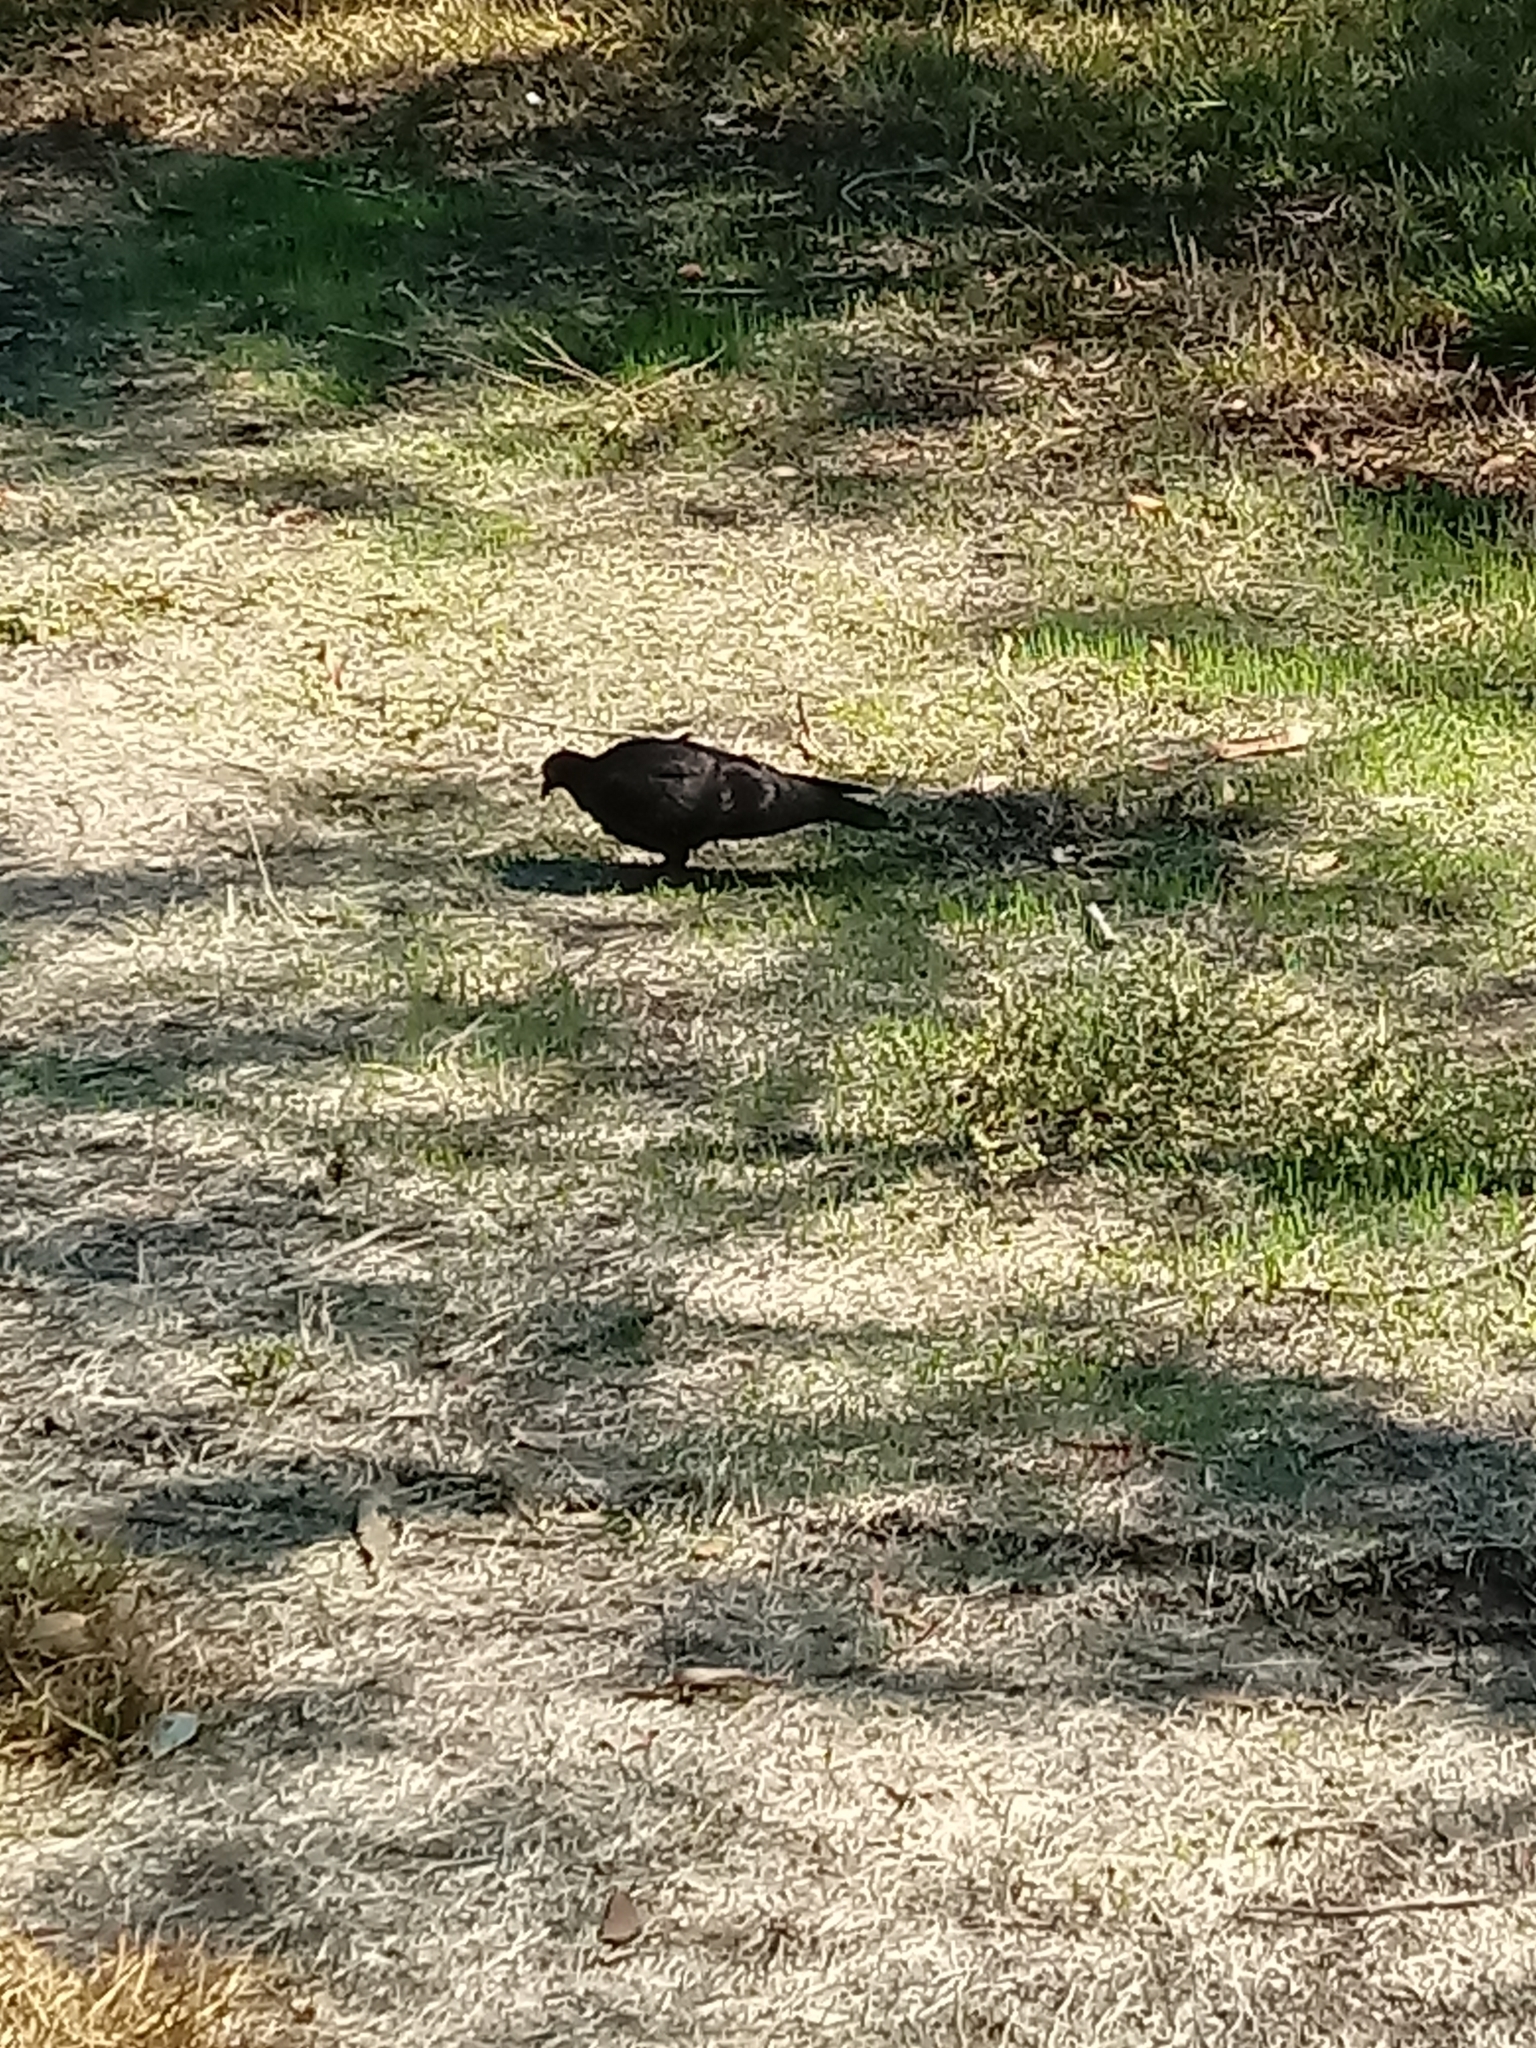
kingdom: Animalia
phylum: Chordata
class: Aves
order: Columbiformes
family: Columbidae
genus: Columba
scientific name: Columba livia
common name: Rock pigeon
